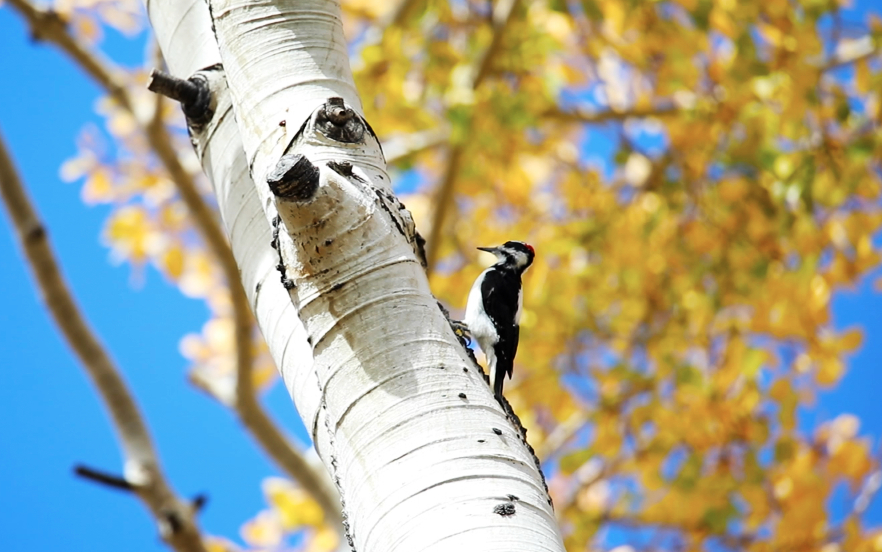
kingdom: Animalia
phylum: Chordata
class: Aves
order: Piciformes
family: Picidae
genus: Leuconotopicus
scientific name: Leuconotopicus villosus
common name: Hairy woodpecker
